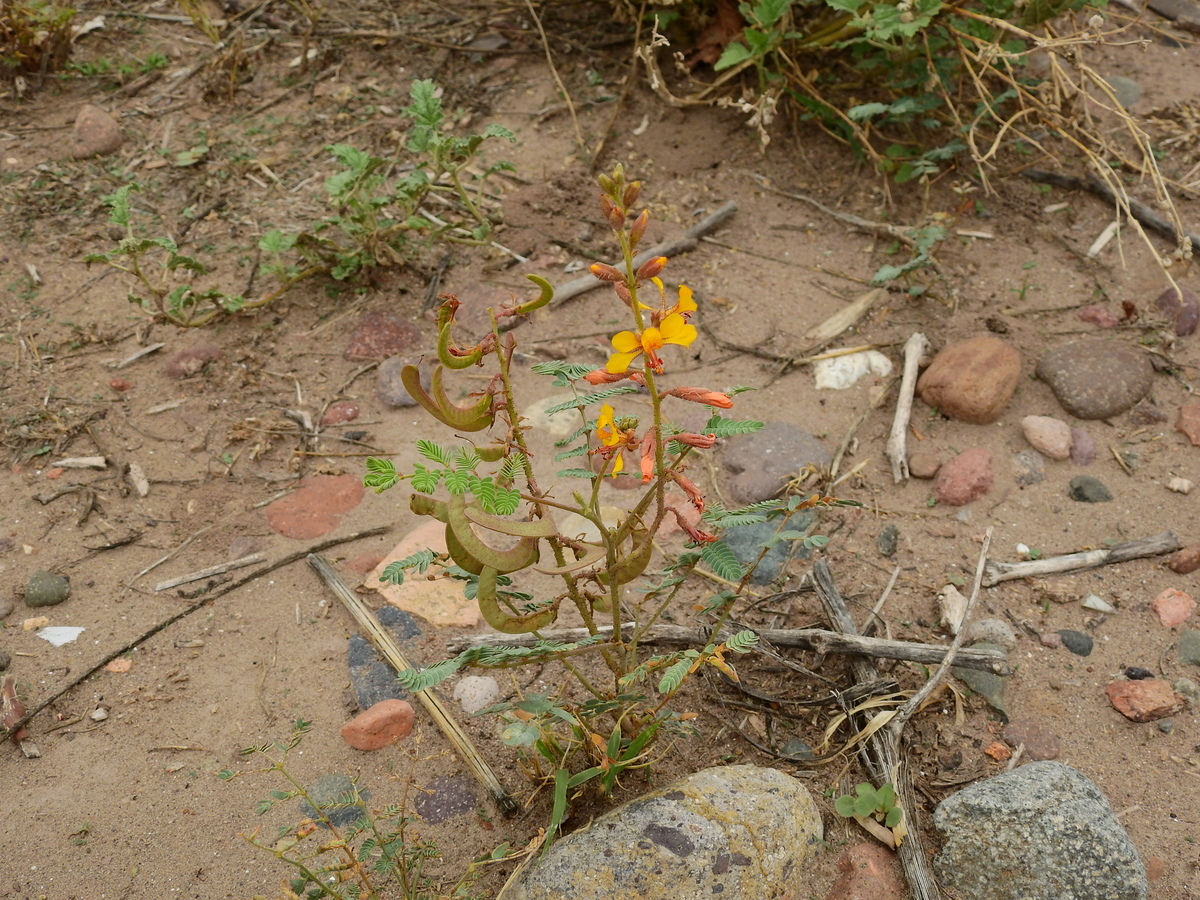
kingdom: Plantae
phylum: Tracheophyta
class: Magnoliopsida
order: Fabales
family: Fabaceae
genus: Hoffmannseggia
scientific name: Hoffmannseggia glauca
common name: Pignut
